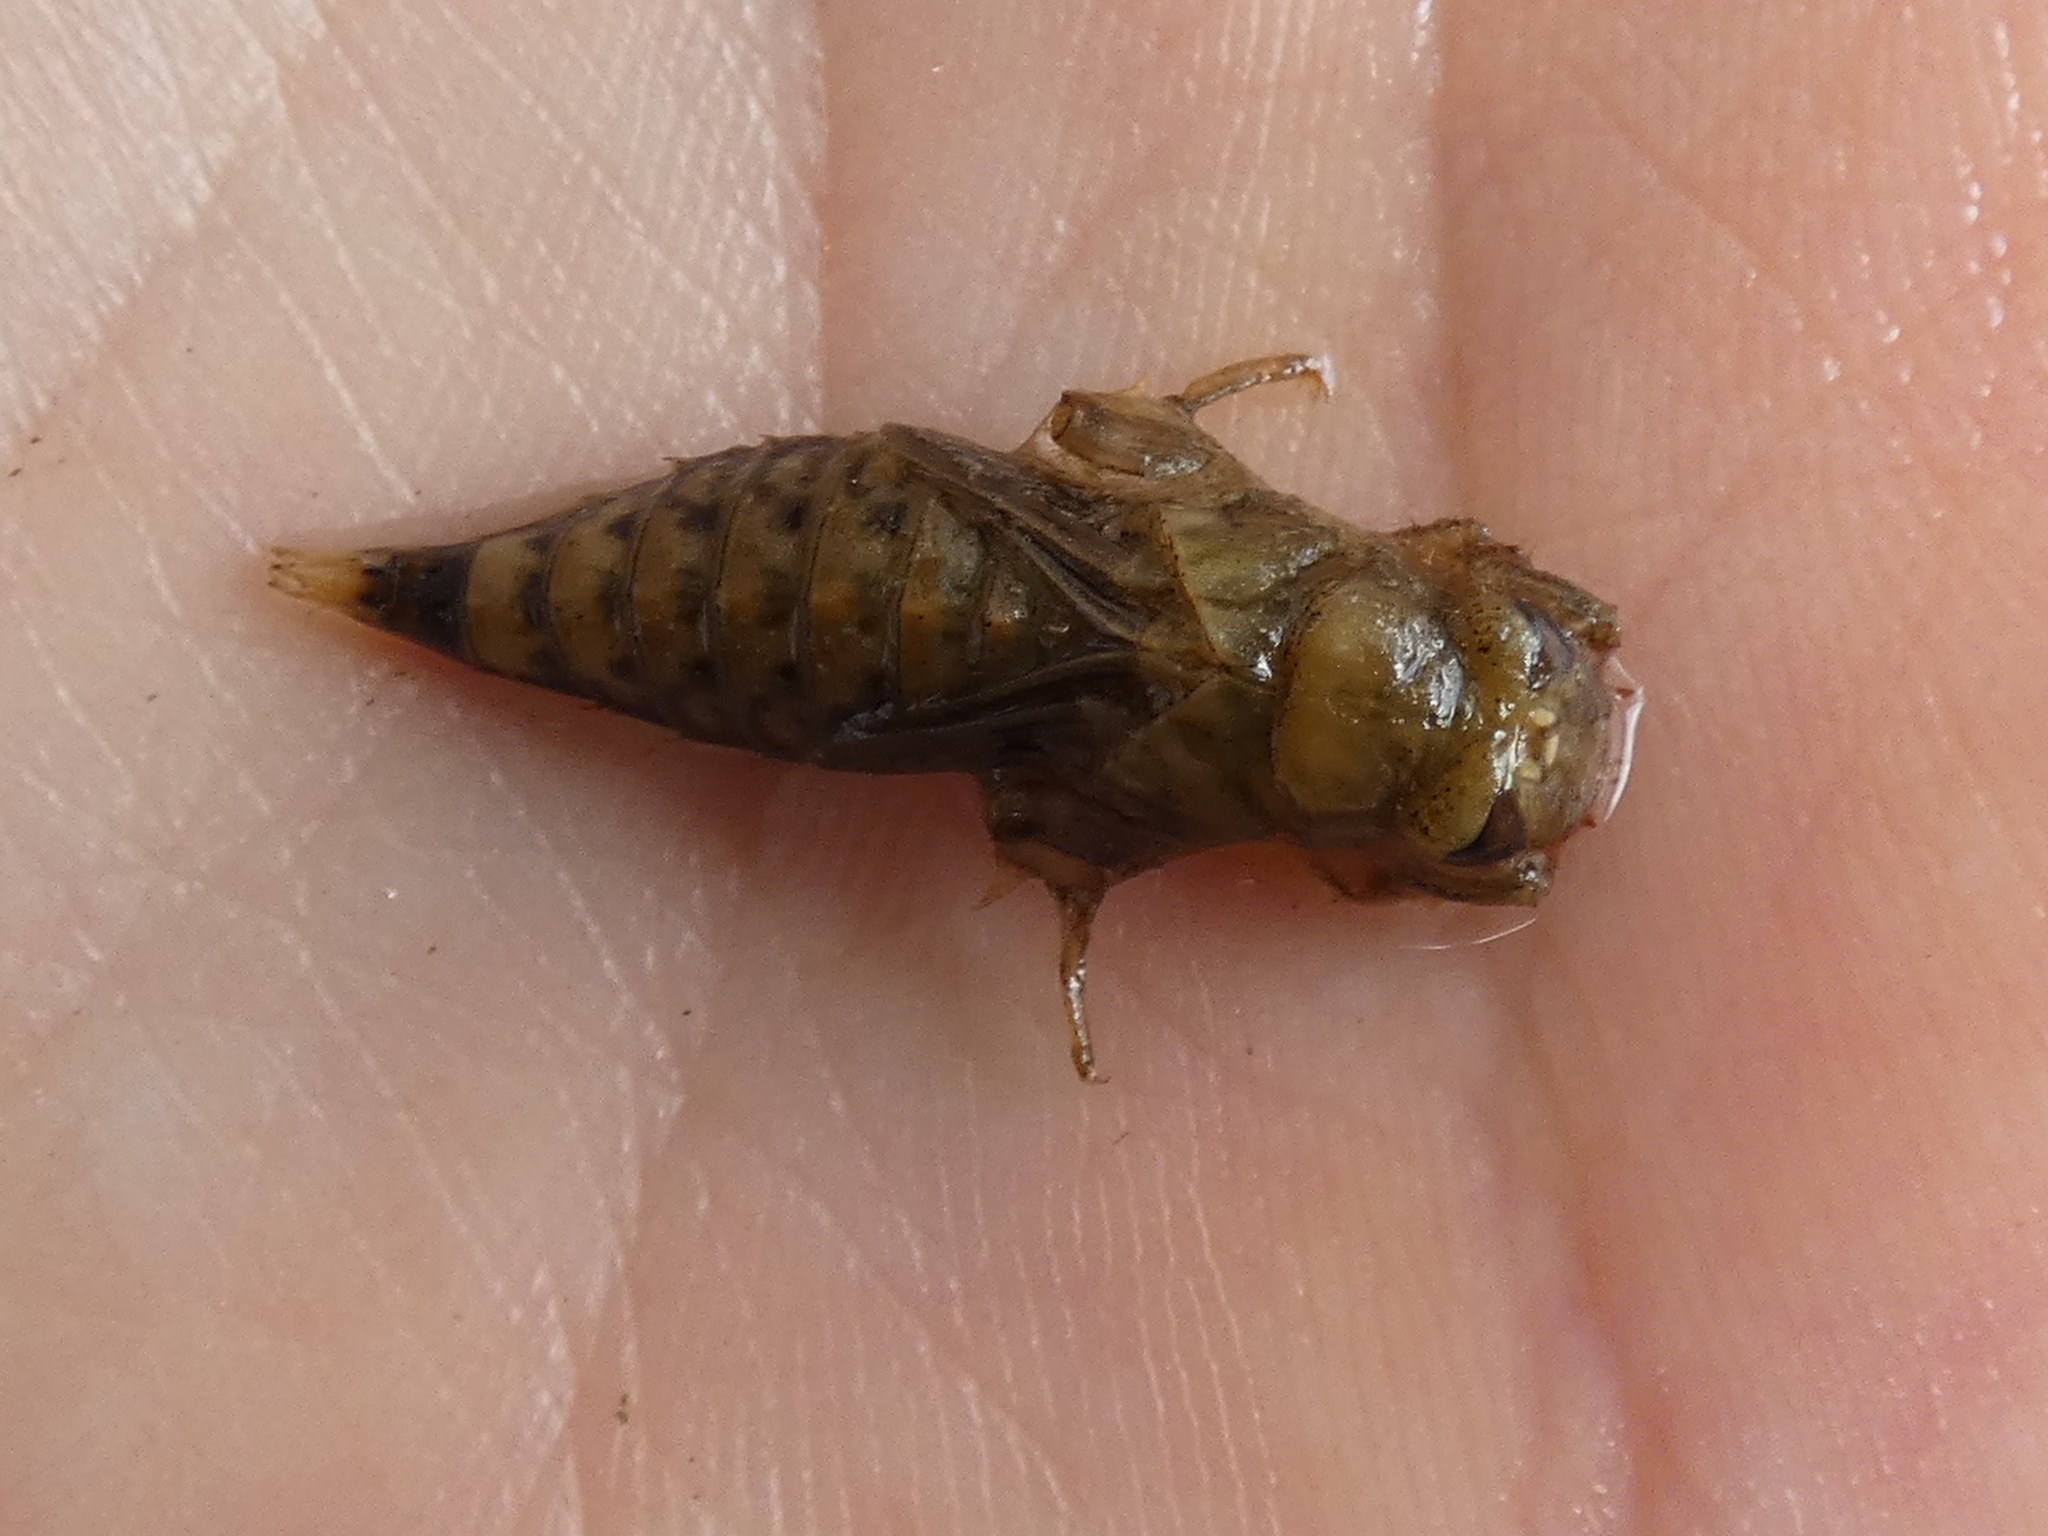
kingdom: Animalia
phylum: Arthropoda
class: Insecta
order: Odonata
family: Gomphidae
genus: Progomphus
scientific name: Progomphus obscurus
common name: Common sanddragon
